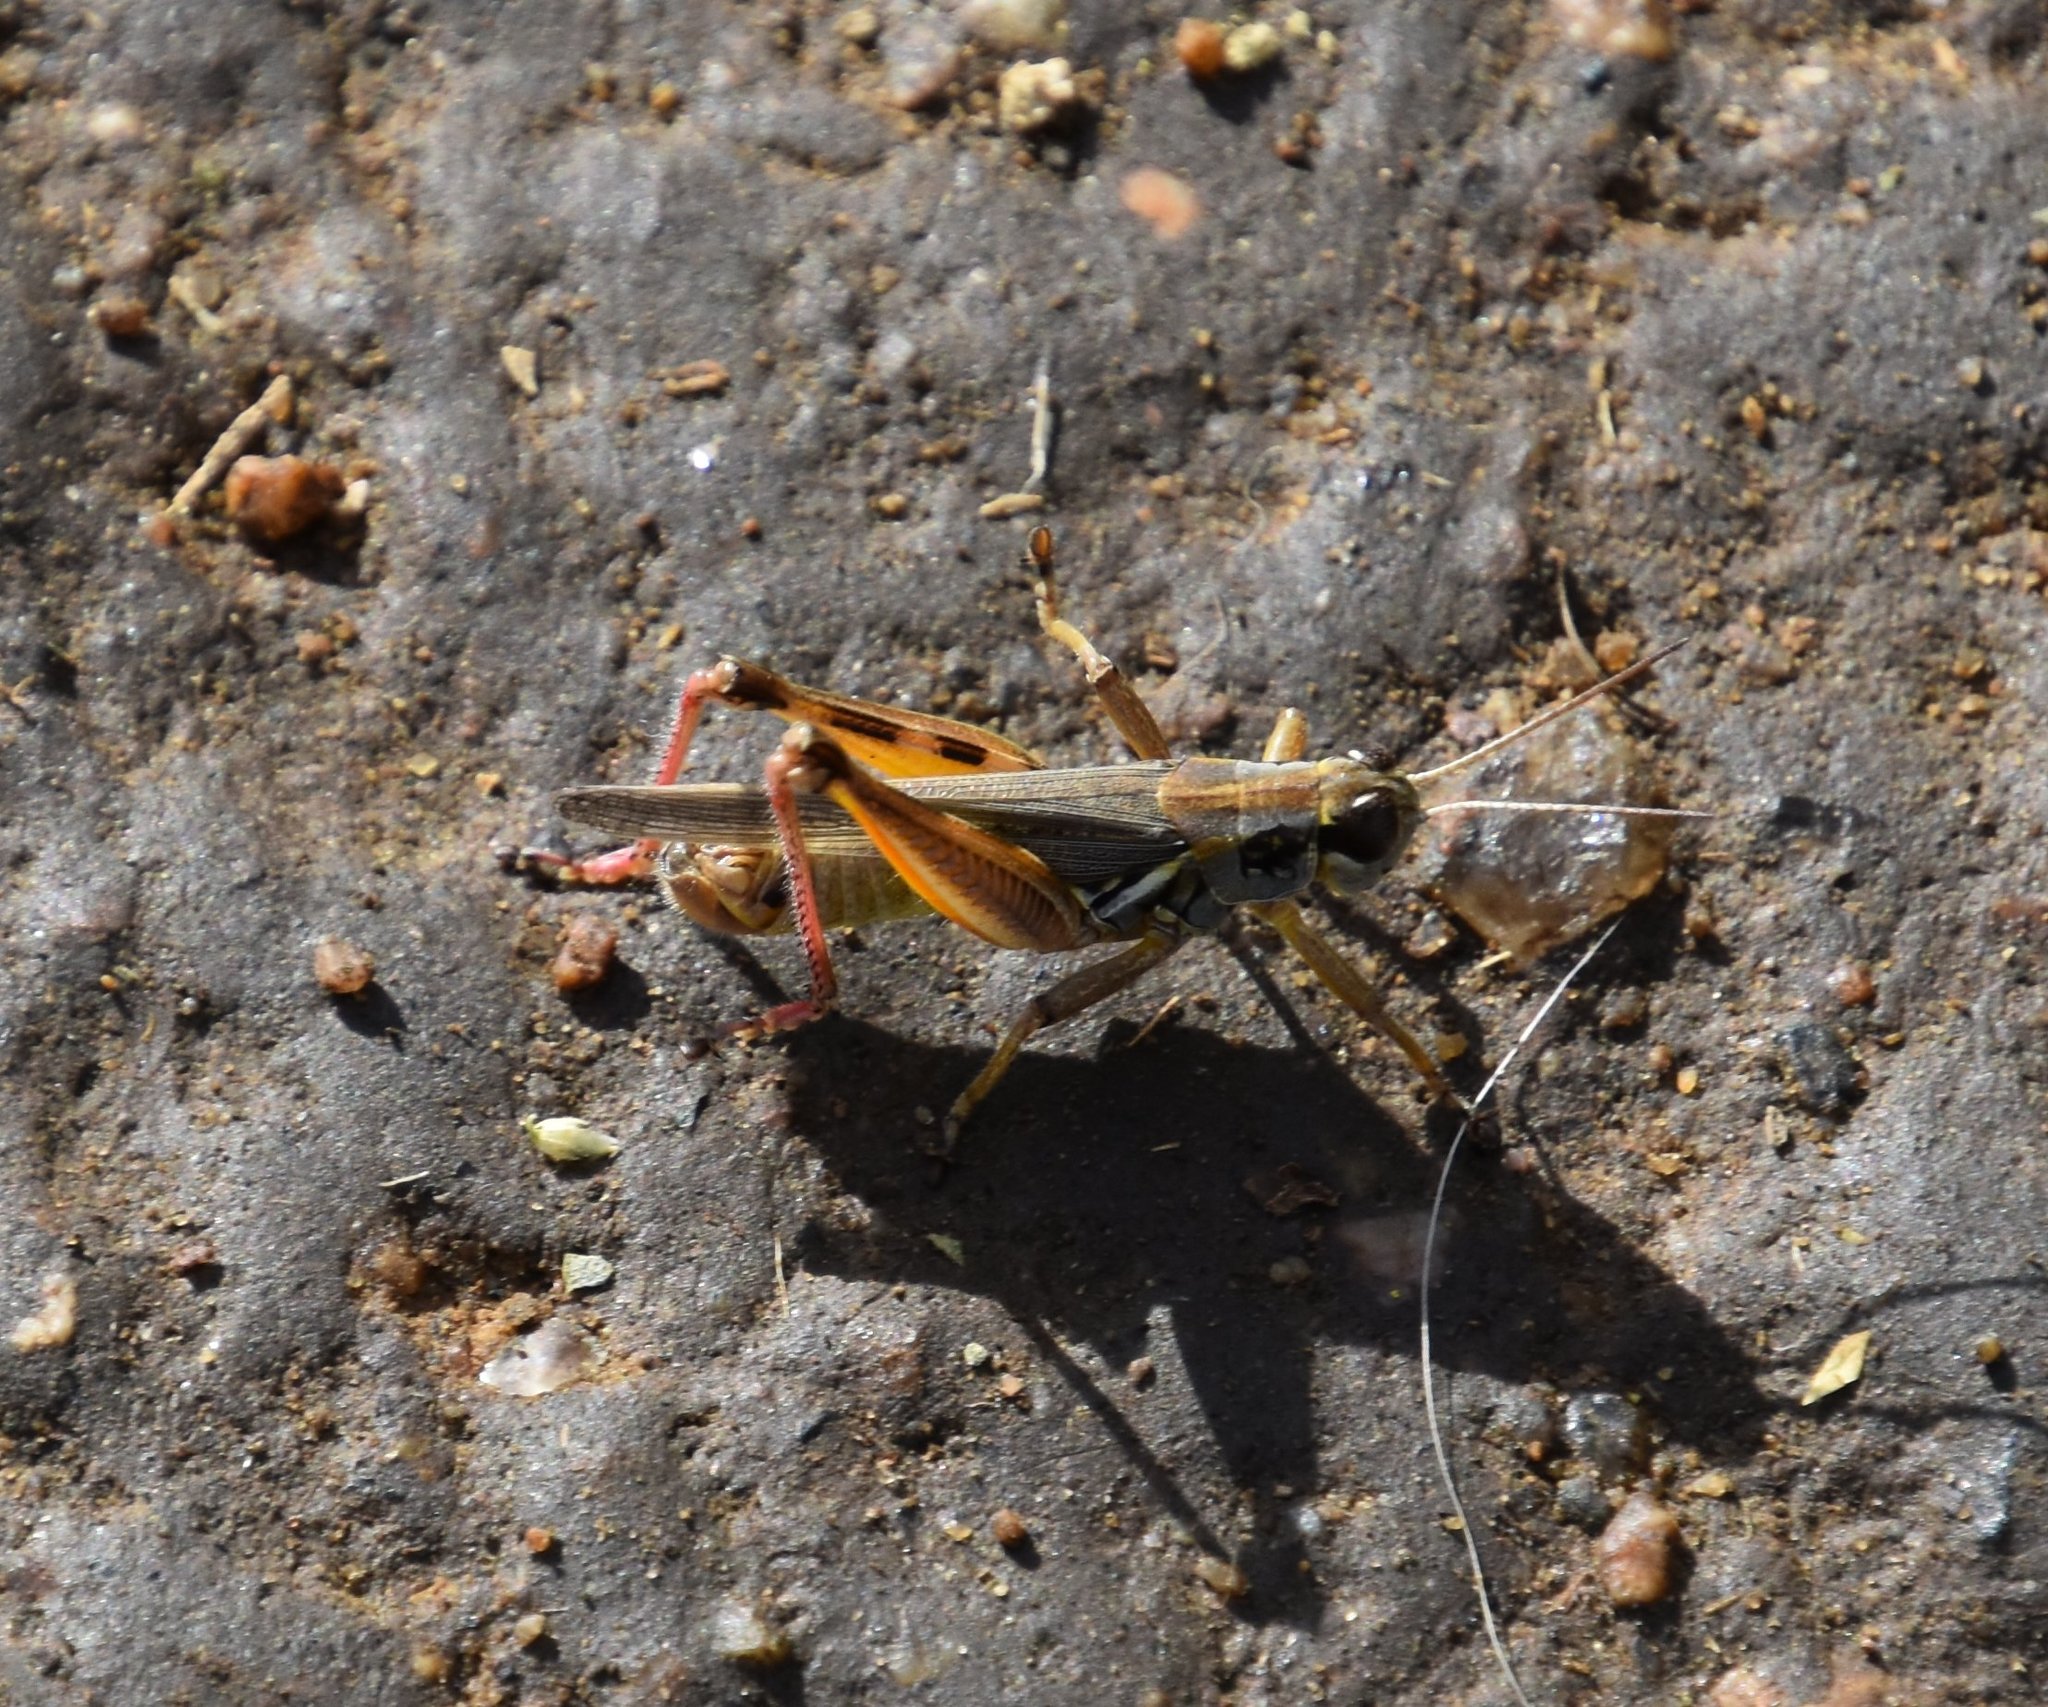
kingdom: Animalia
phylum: Arthropoda
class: Insecta
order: Orthoptera
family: Acrididae
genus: Melanoplus
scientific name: Melanoplus femurrubrum
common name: Red-legged grasshopper
